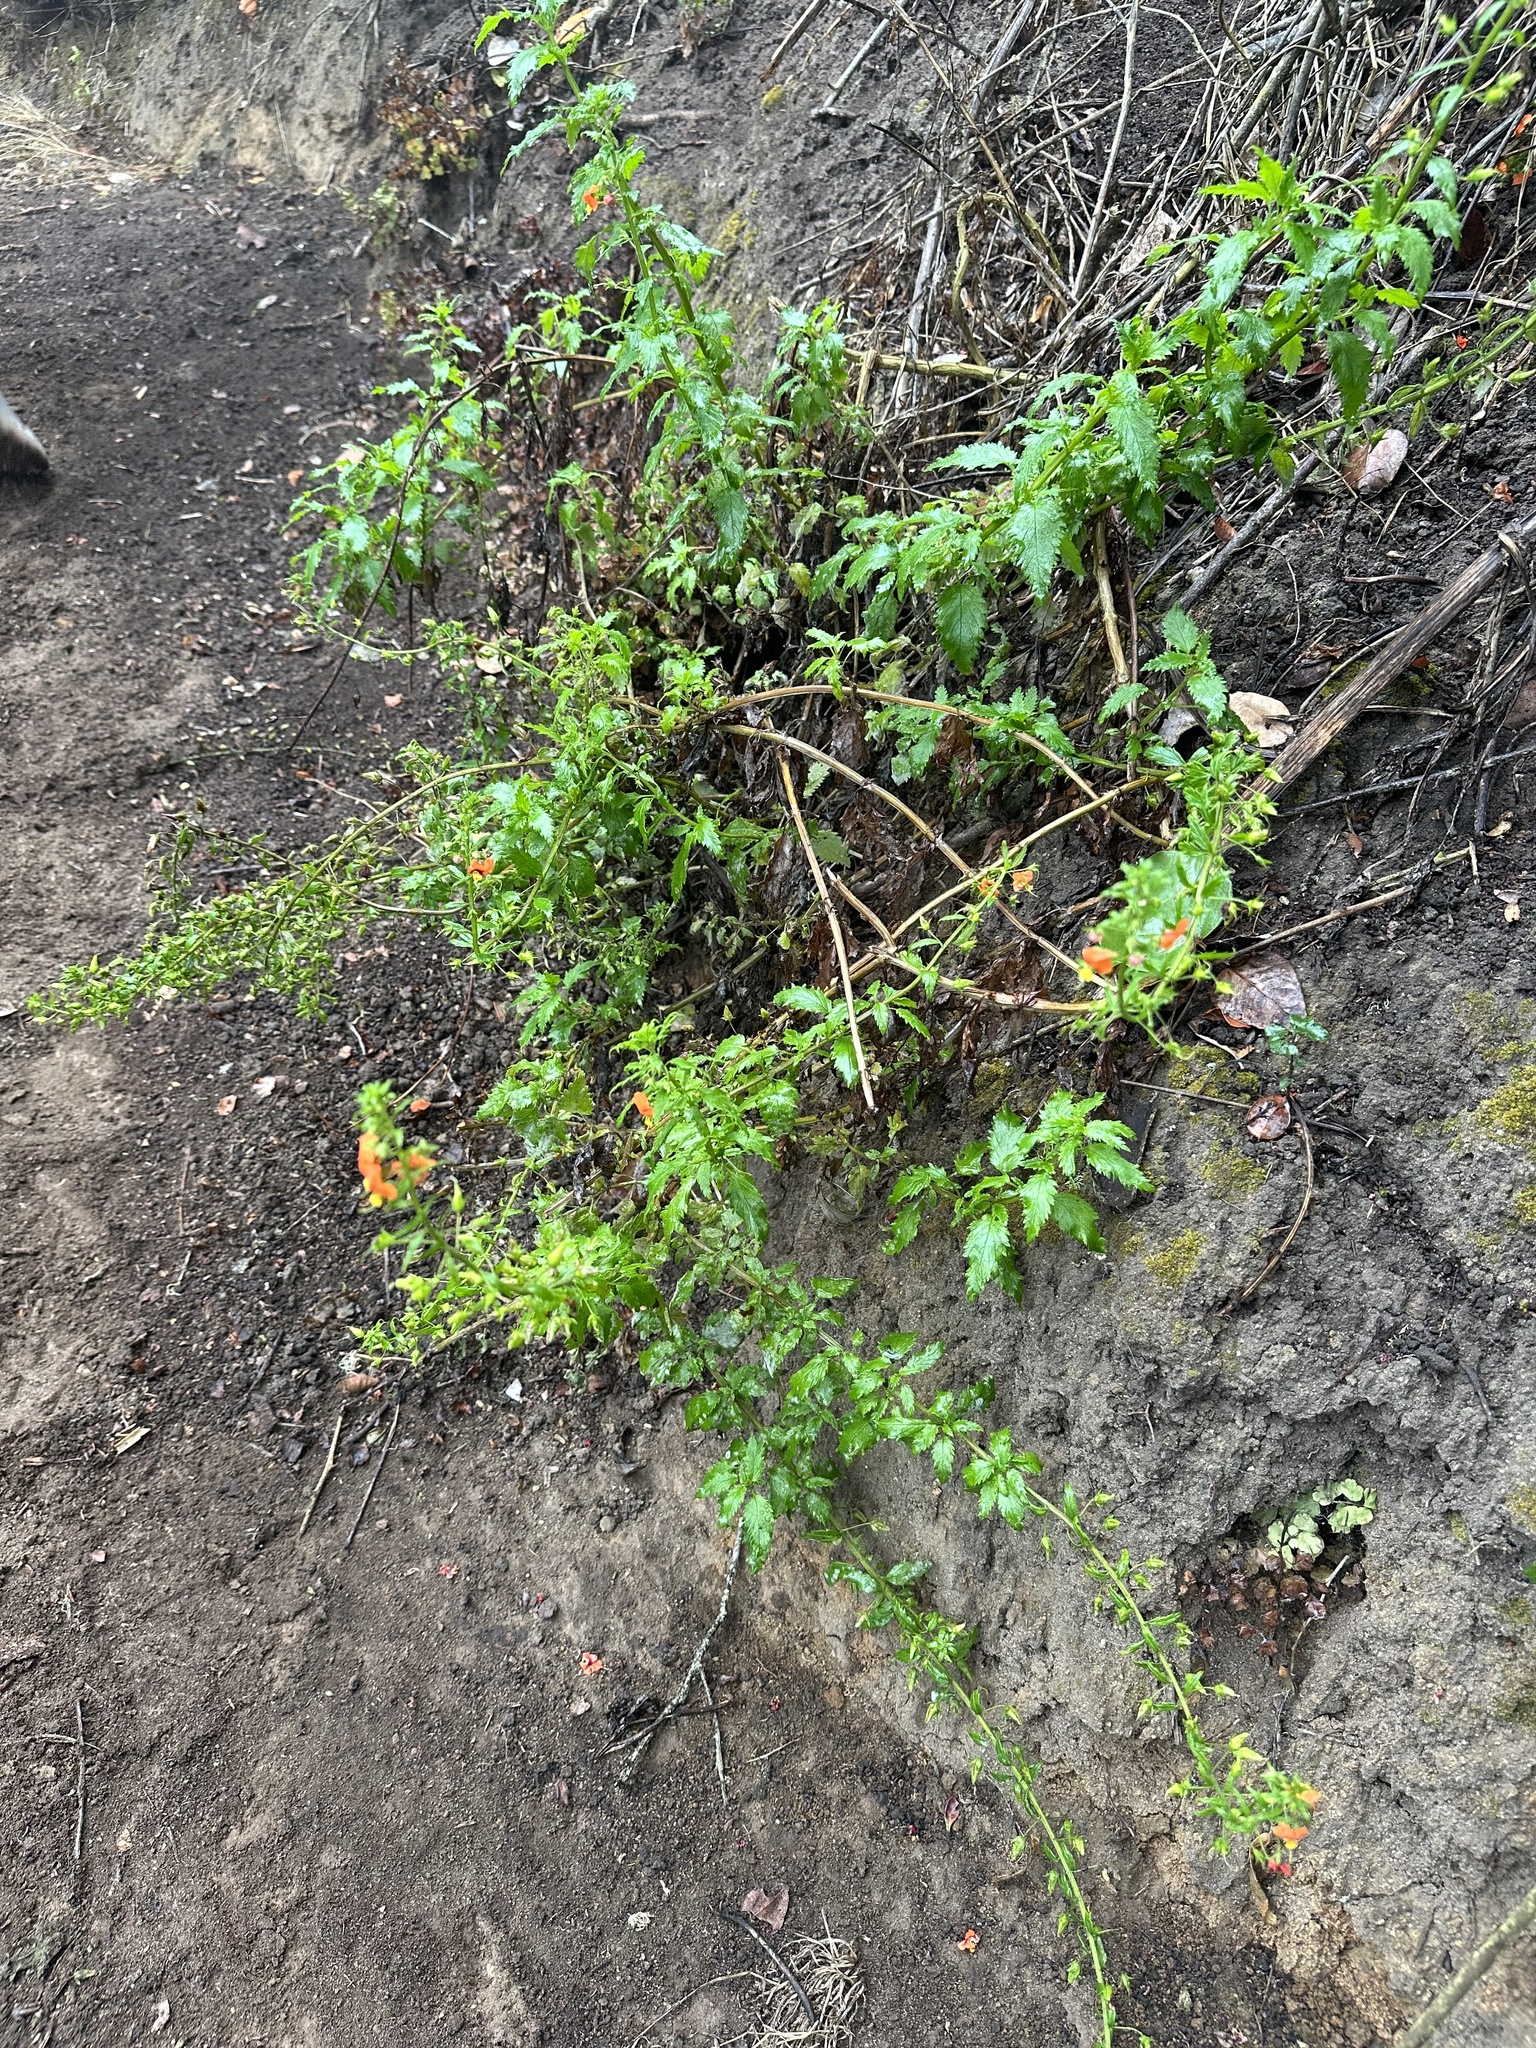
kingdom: Plantae
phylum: Tracheophyta
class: Magnoliopsida
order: Lamiales
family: Scrophulariaceae
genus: Alonsoa
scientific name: Alonsoa meridionalis
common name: Maskflower
